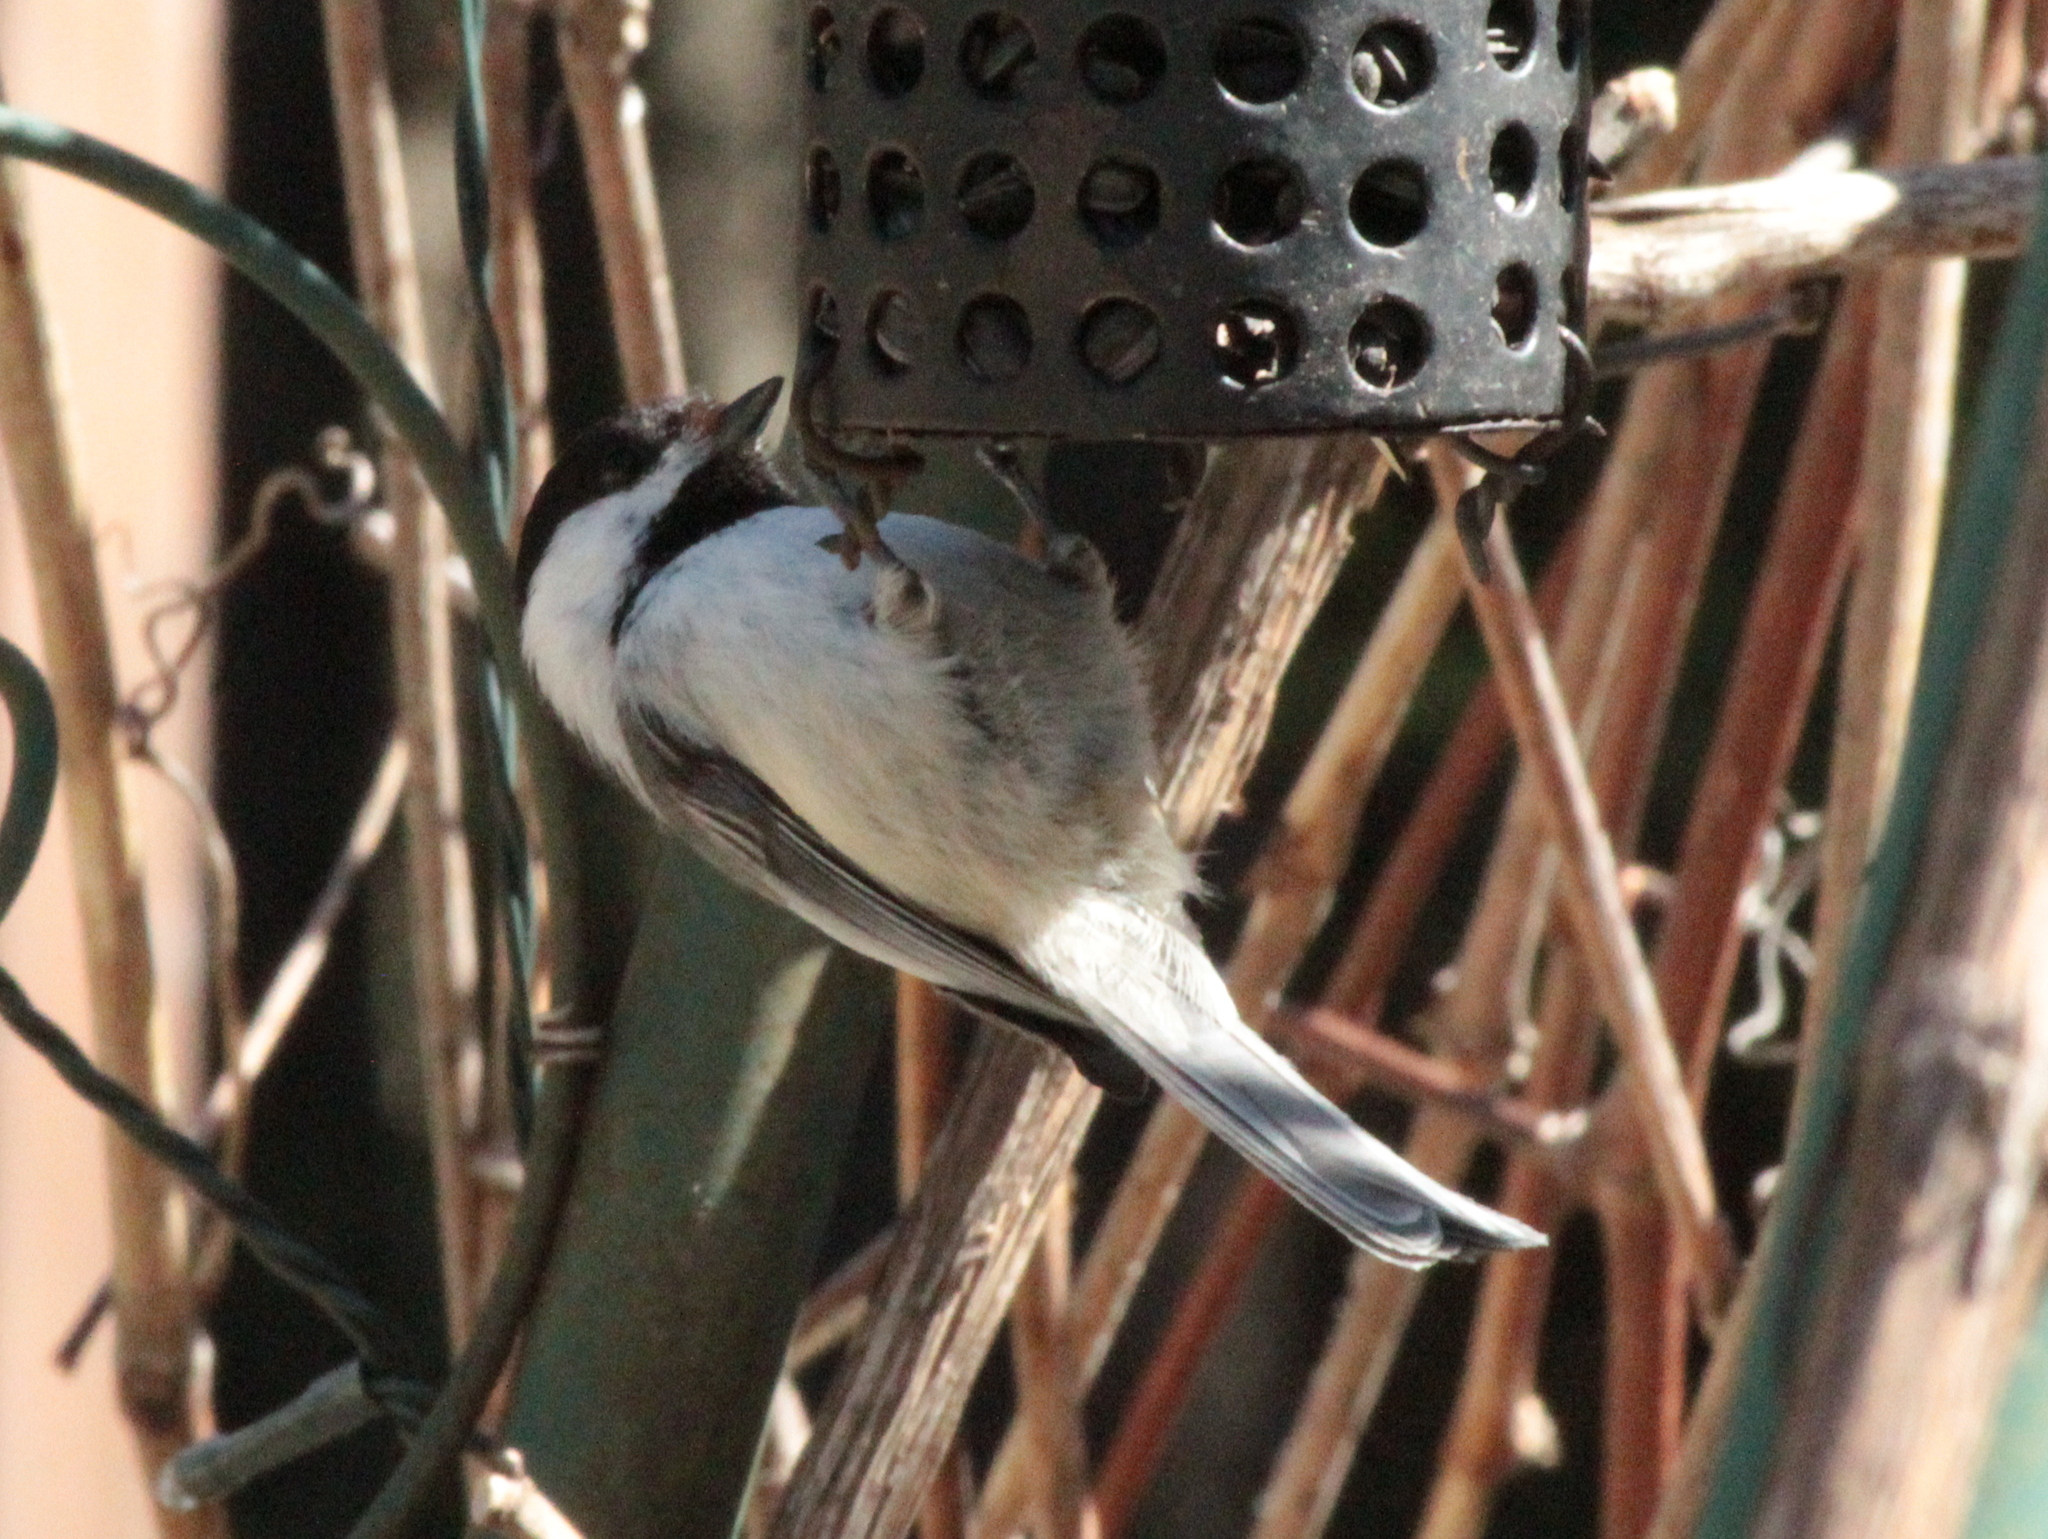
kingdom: Animalia
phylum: Chordata
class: Aves
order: Passeriformes
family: Paridae
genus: Poecile
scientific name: Poecile atricapillus
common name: Black-capped chickadee
